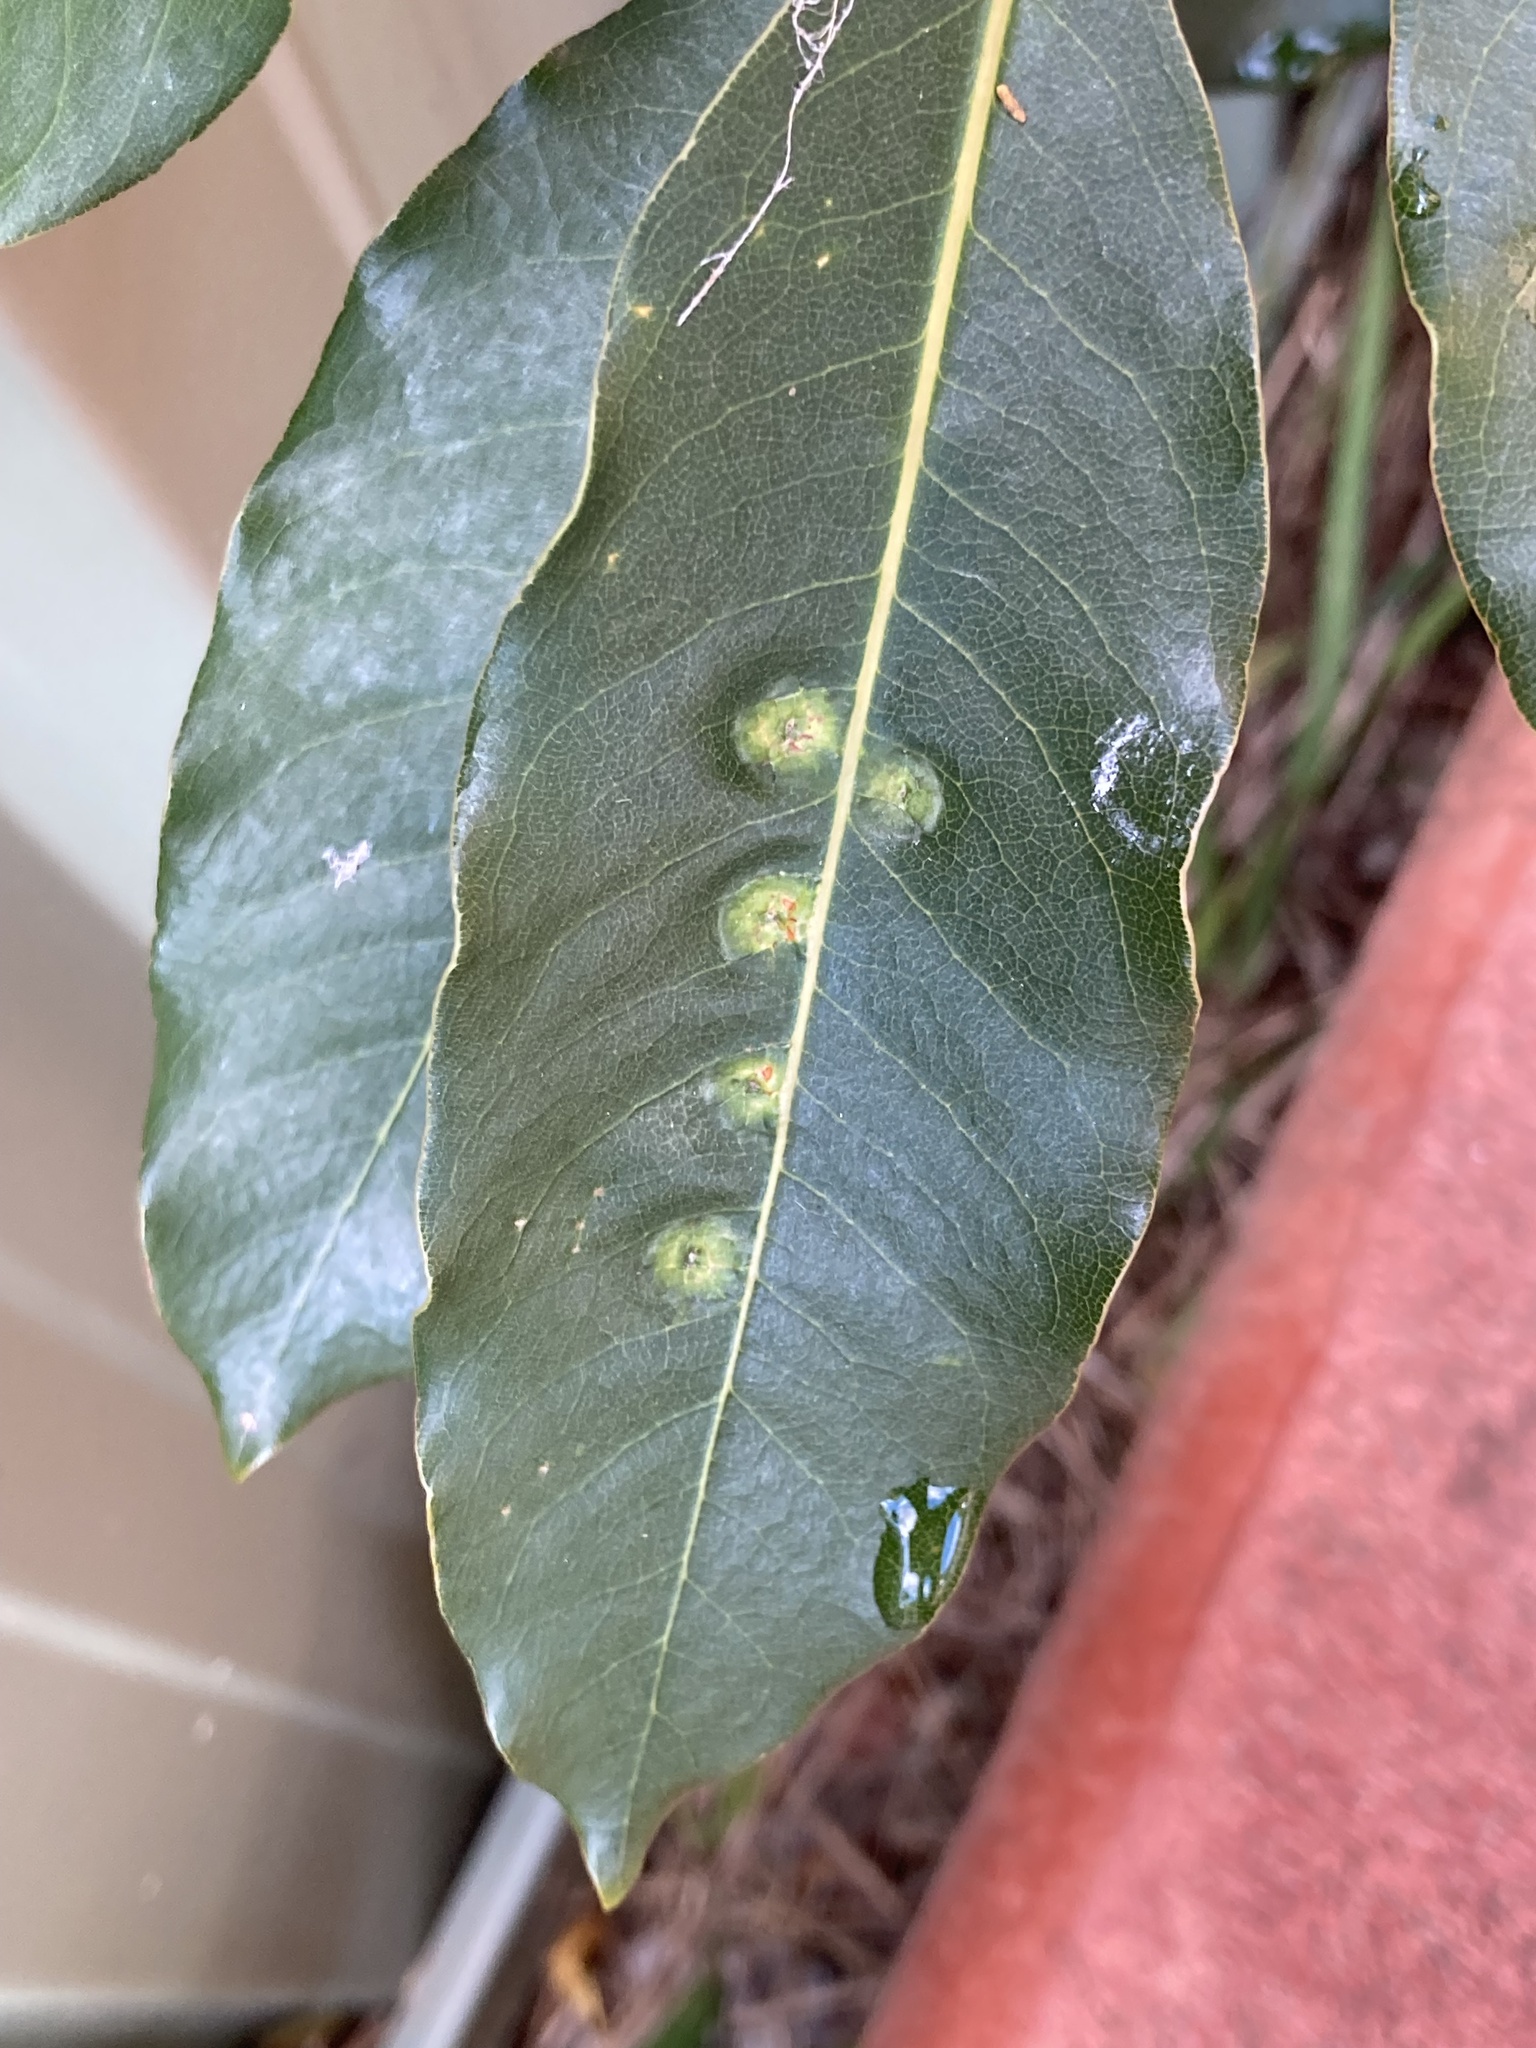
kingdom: Animalia
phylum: Arthropoda
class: Insecta
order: Diptera
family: Agromyzidae
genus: Phytoliriomyza
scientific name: Phytoliriomyza pittosporophylli
